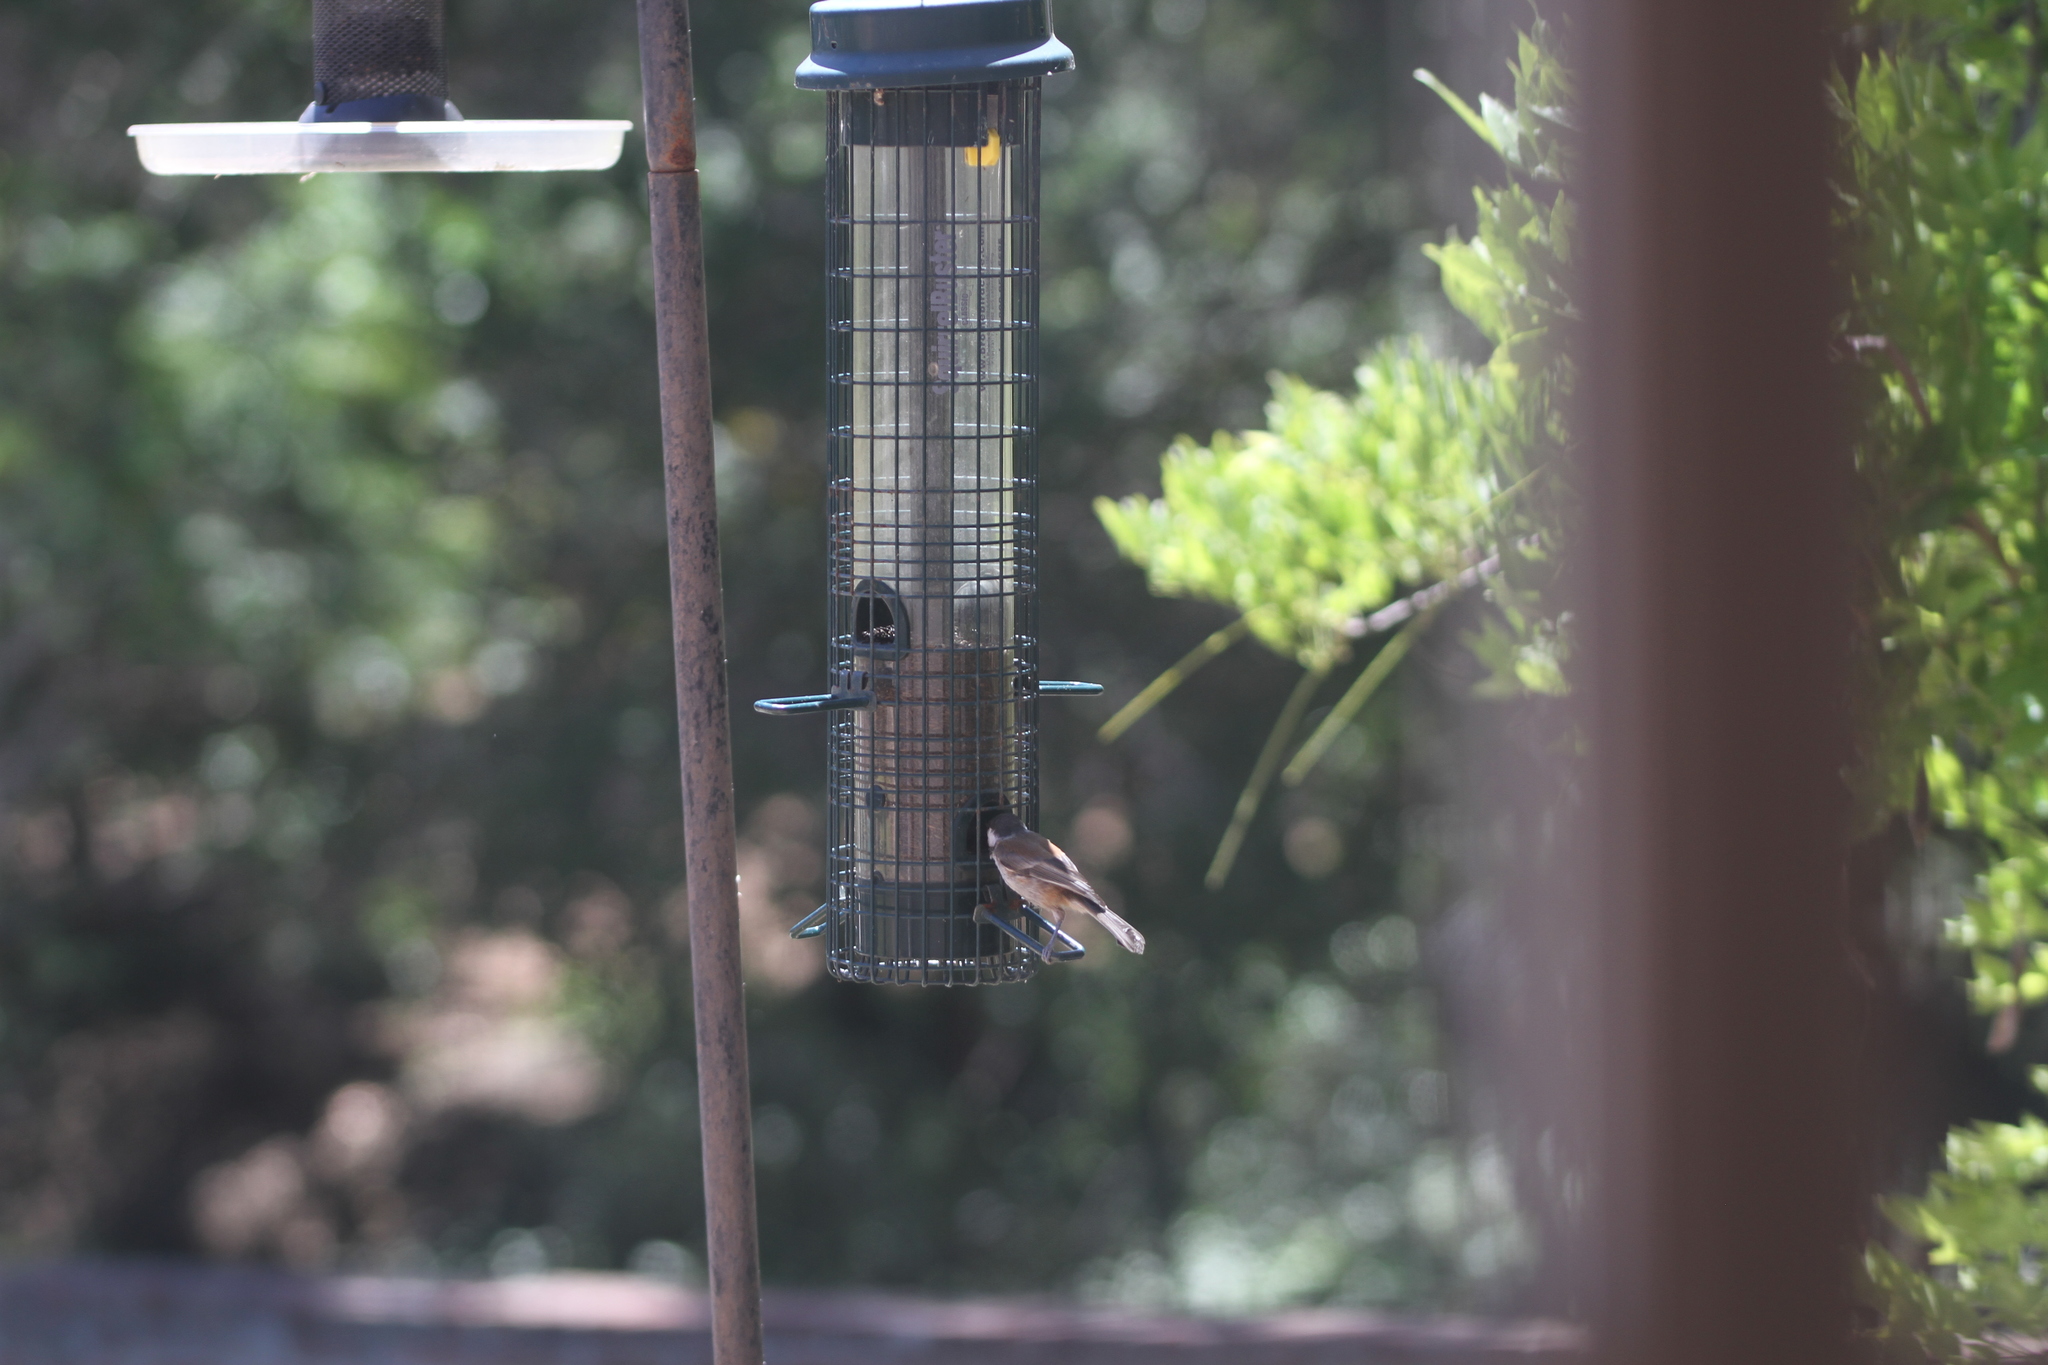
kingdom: Animalia
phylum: Chordata
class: Aves
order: Passeriformes
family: Paridae
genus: Poecile
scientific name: Poecile rufescens
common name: Chestnut-backed chickadee
